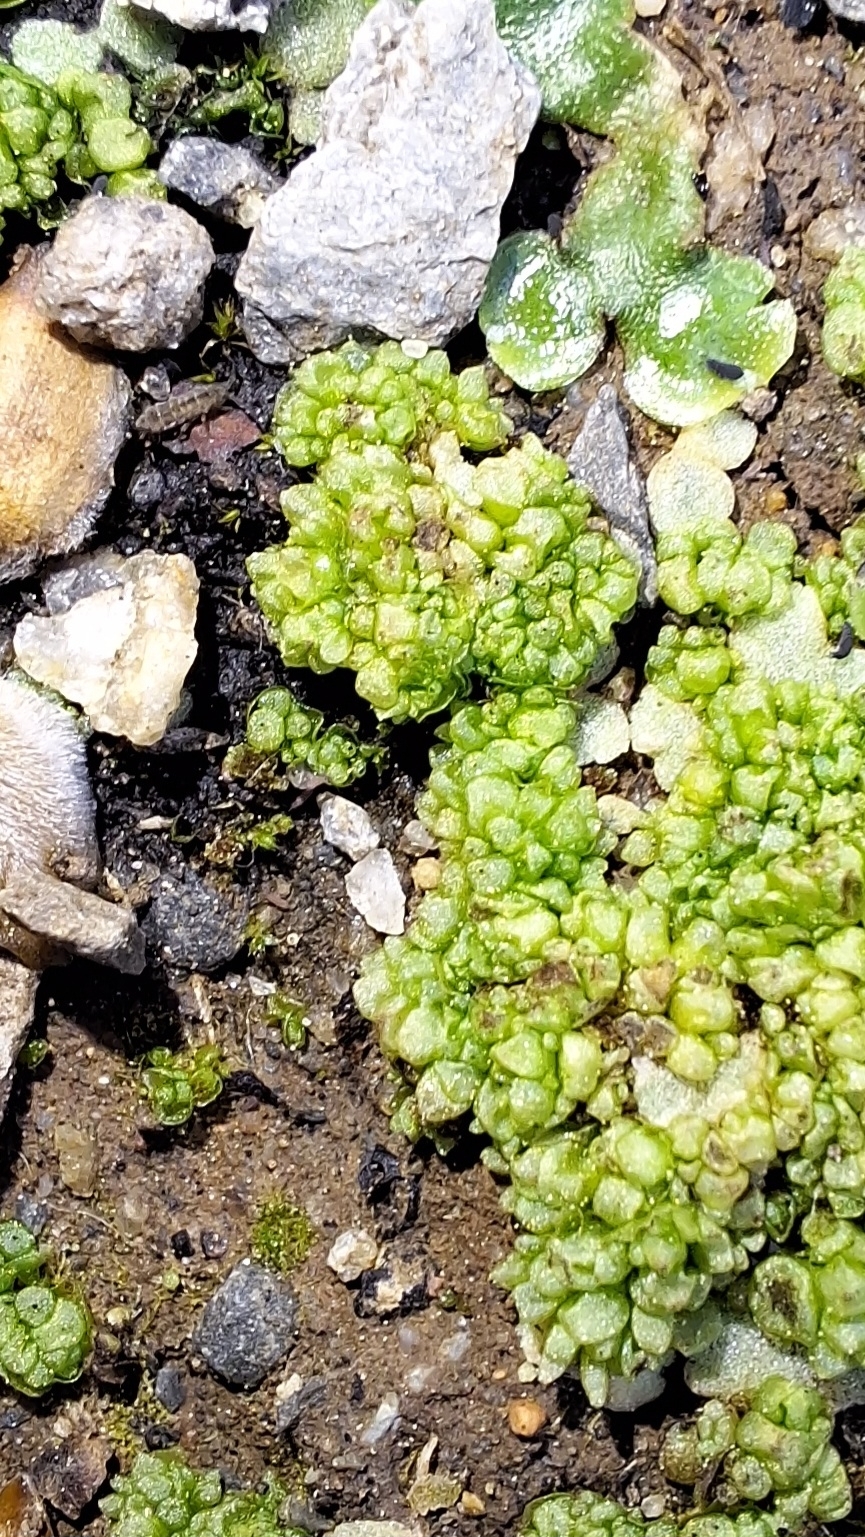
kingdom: Plantae
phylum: Marchantiophyta
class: Marchantiopsida
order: Sphaerocarpales
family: Sphaerocarpaceae
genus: Sphaerocarpos
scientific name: Sphaerocarpos texanus
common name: Texas balloonwort
